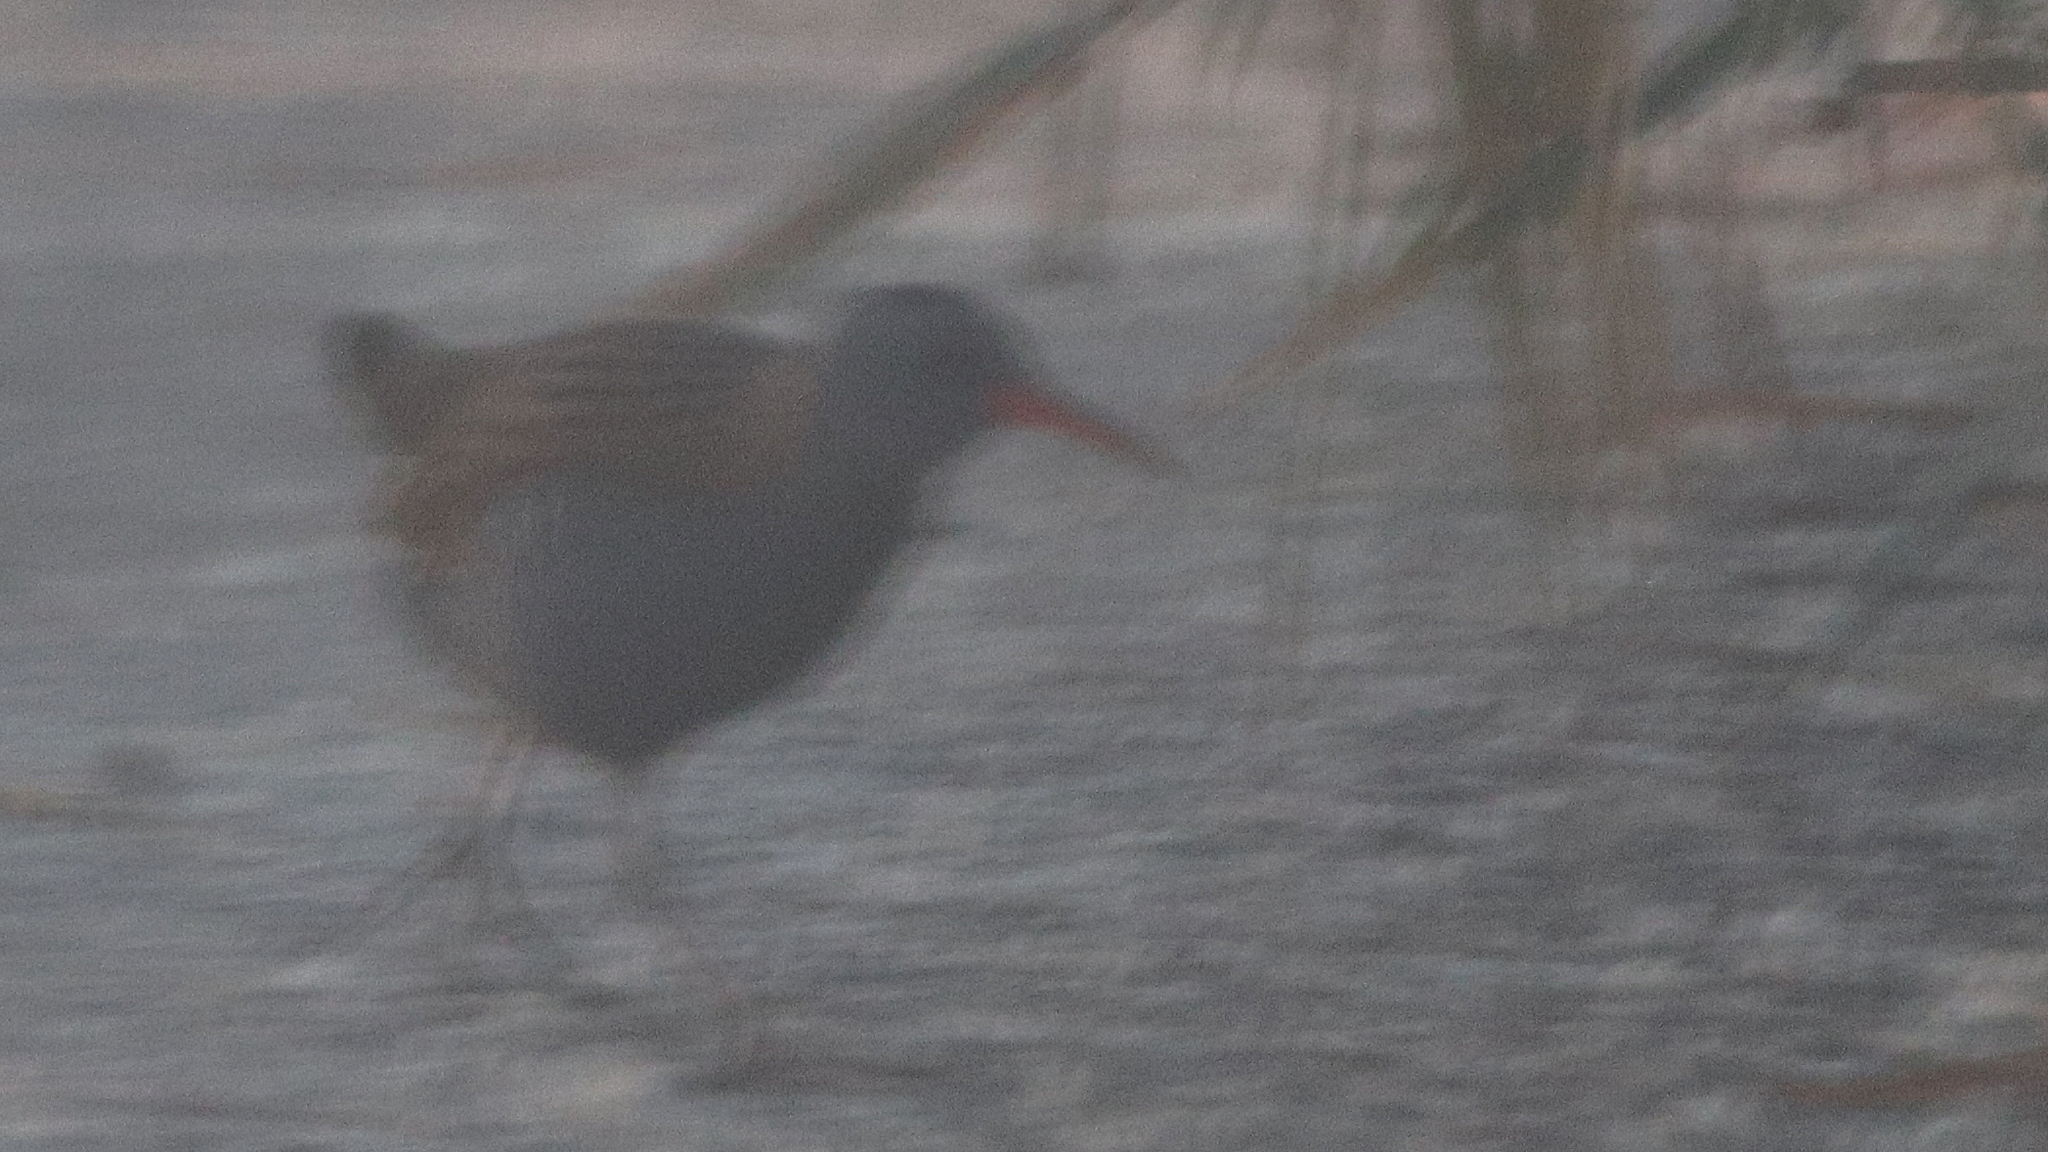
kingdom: Animalia
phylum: Chordata
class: Aves
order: Gruiformes
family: Rallidae
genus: Rallus
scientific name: Rallus aquaticus
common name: Water rail
